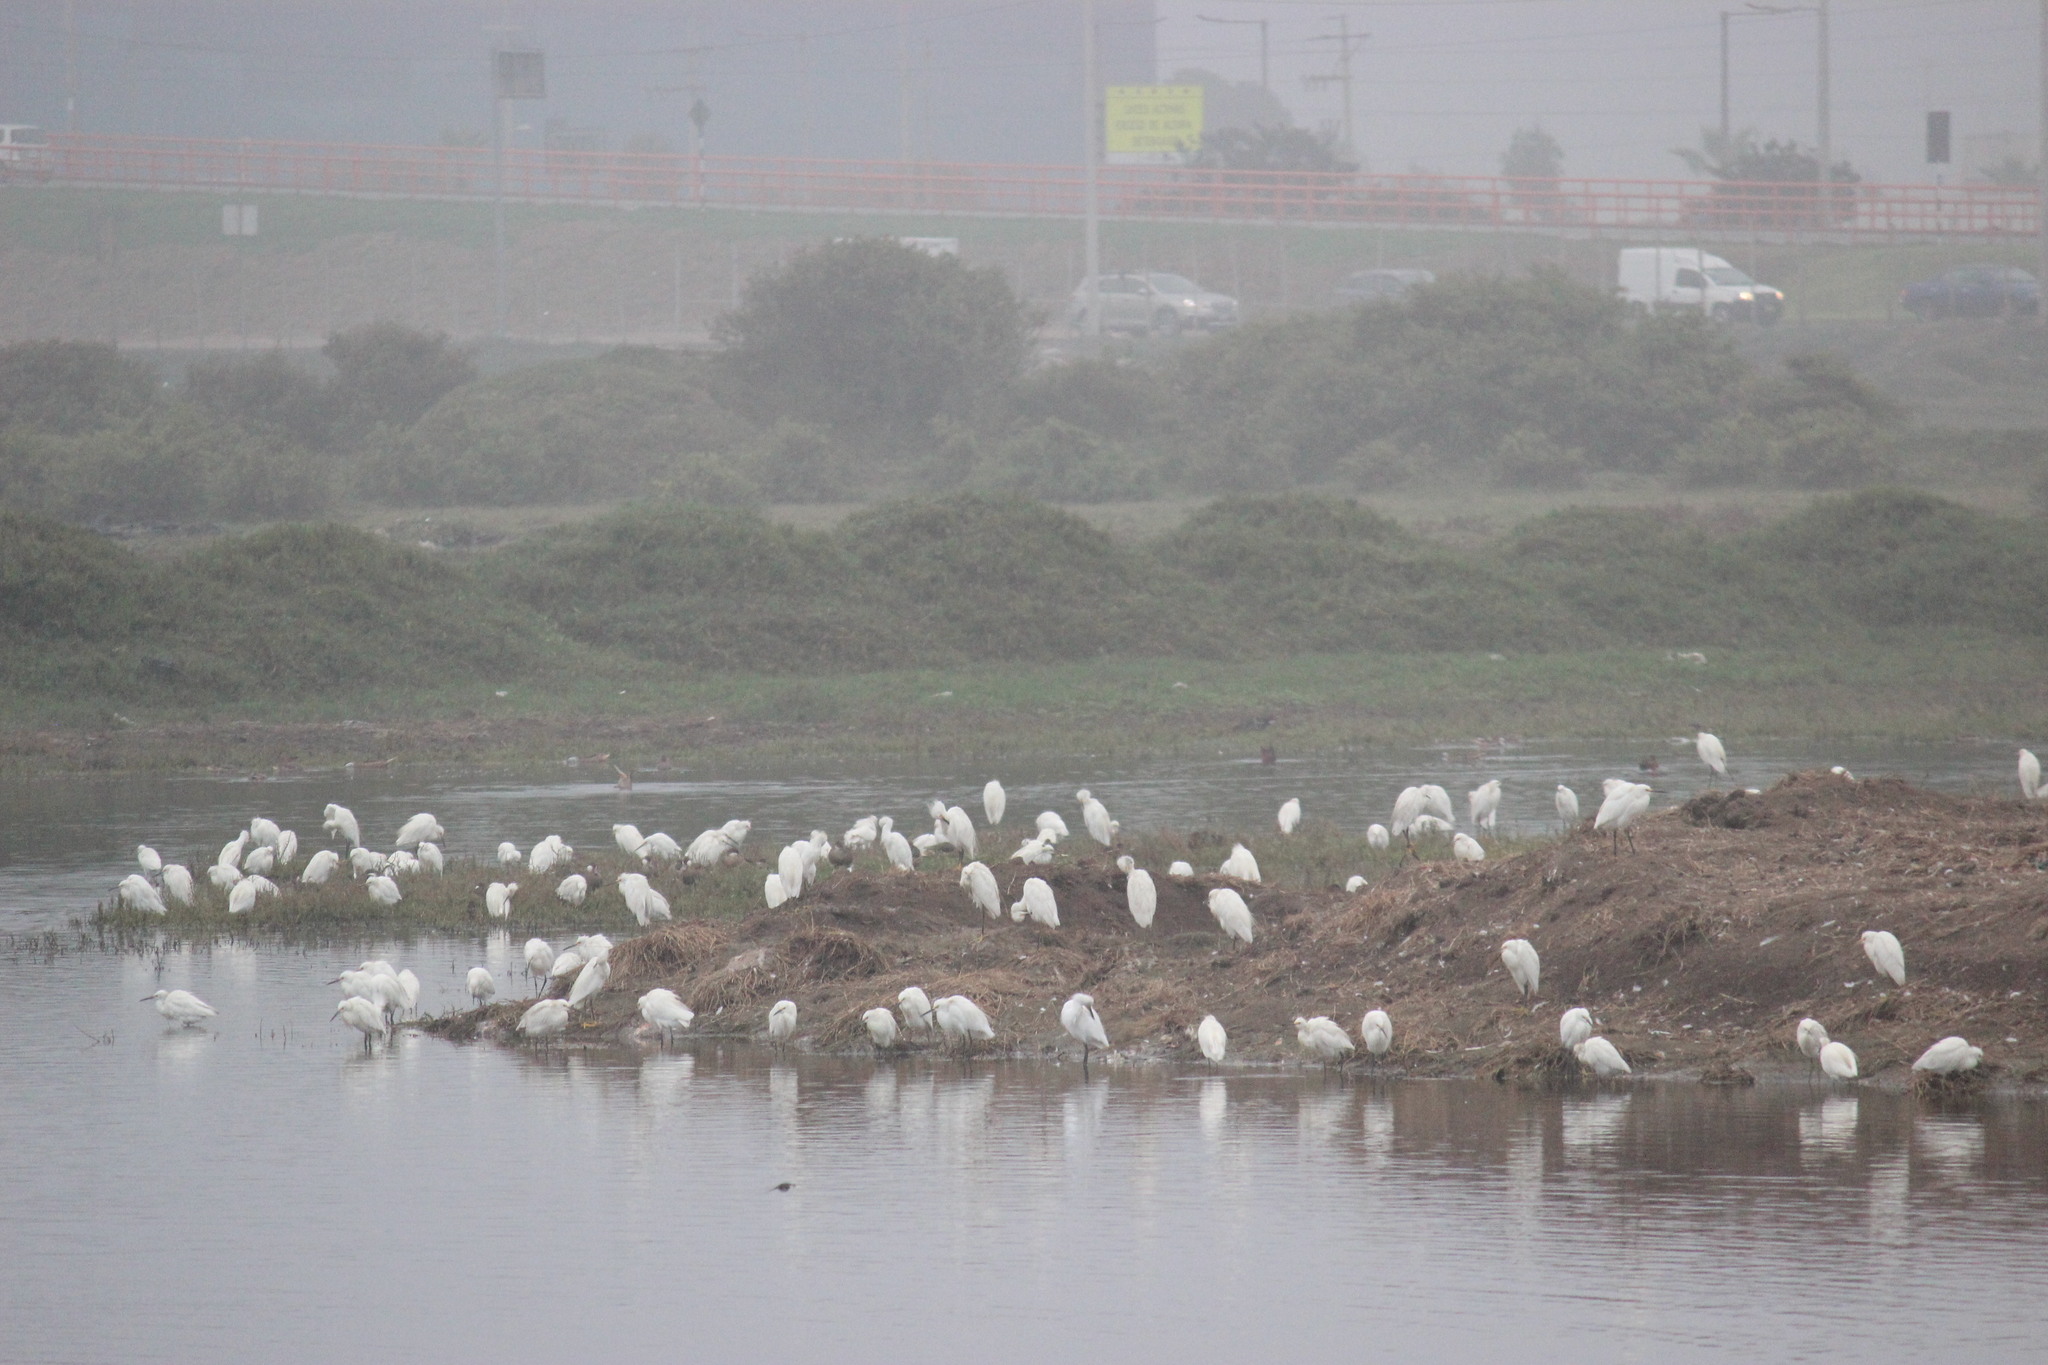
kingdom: Animalia
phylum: Chordata
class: Aves
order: Pelecaniformes
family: Ardeidae
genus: Egretta
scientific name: Egretta thula
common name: Snowy egret
